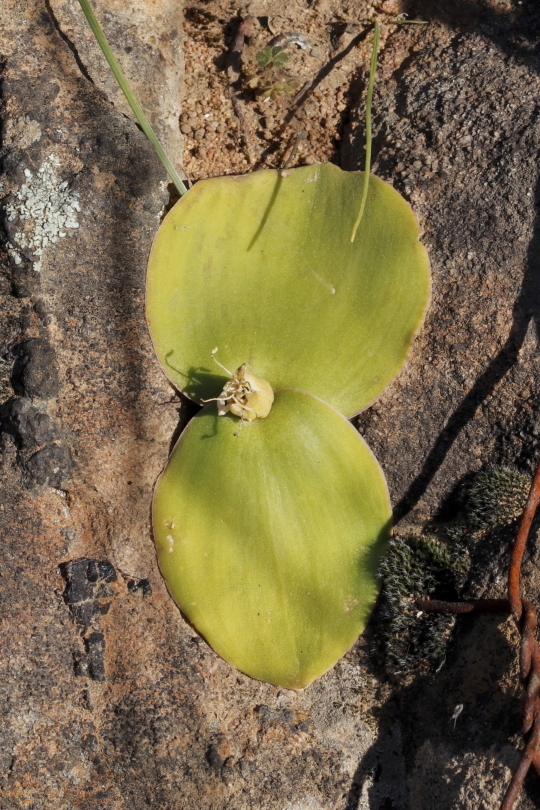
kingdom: Plantae
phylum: Tracheophyta
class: Liliopsida
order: Asparagales
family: Asparagaceae
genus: Massonia
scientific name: Massonia depressa
